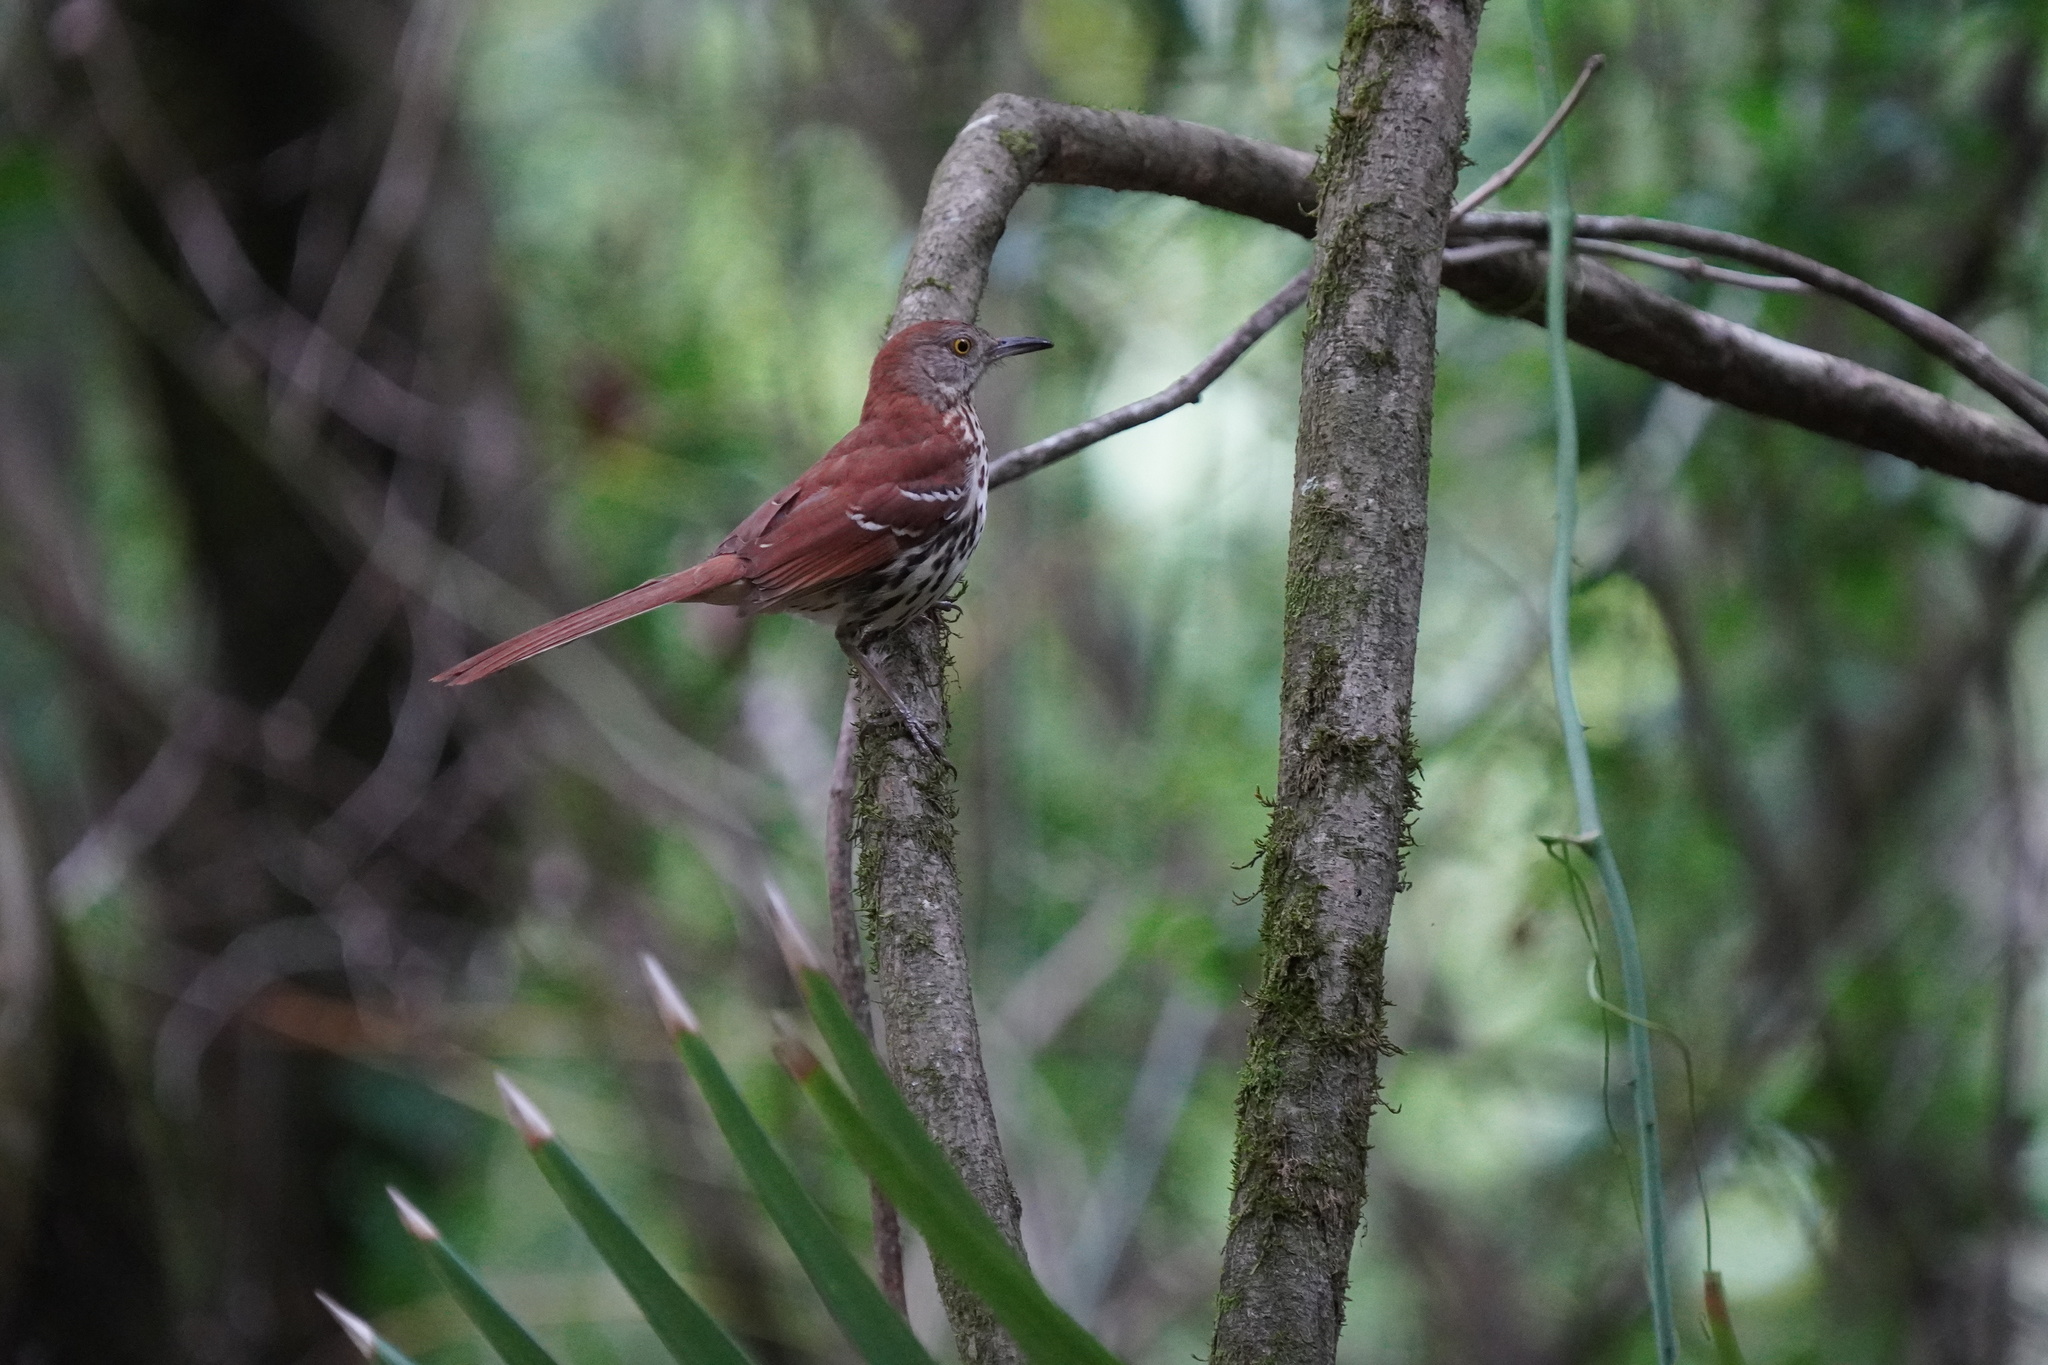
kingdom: Animalia
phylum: Chordata
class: Aves
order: Passeriformes
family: Mimidae
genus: Toxostoma
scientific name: Toxostoma rufum
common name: Brown thrasher
